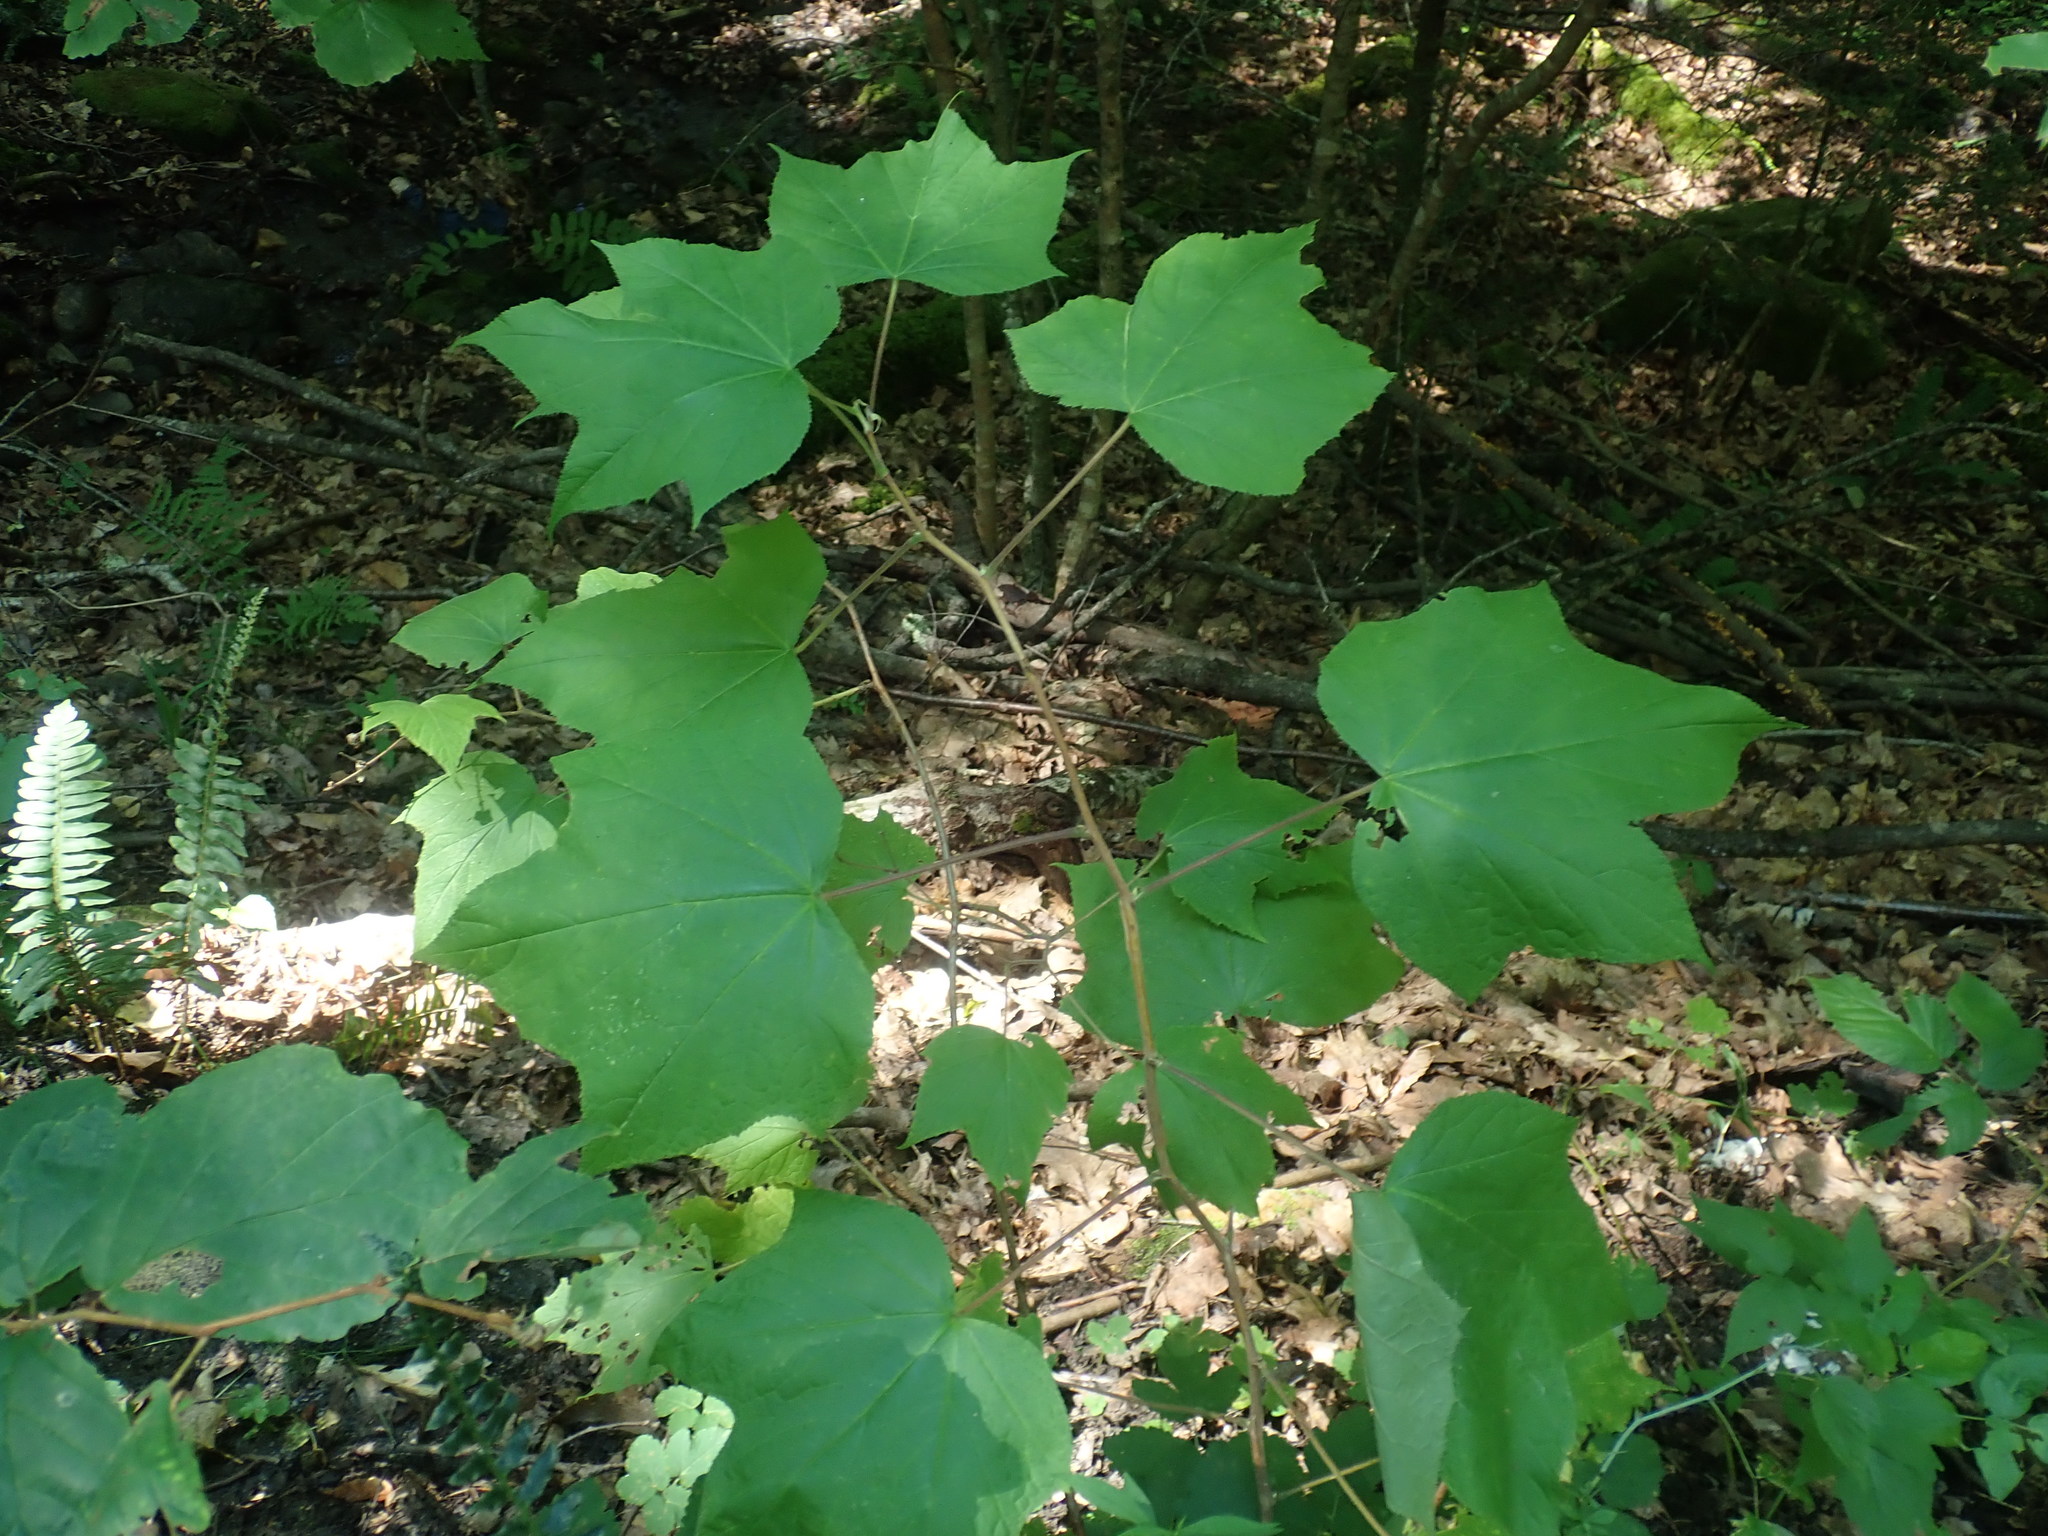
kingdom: Plantae
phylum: Tracheophyta
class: Magnoliopsida
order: Rosales
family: Rosaceae
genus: Rubus
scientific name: Rubus odoratus
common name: Purple-flowered raspberry
